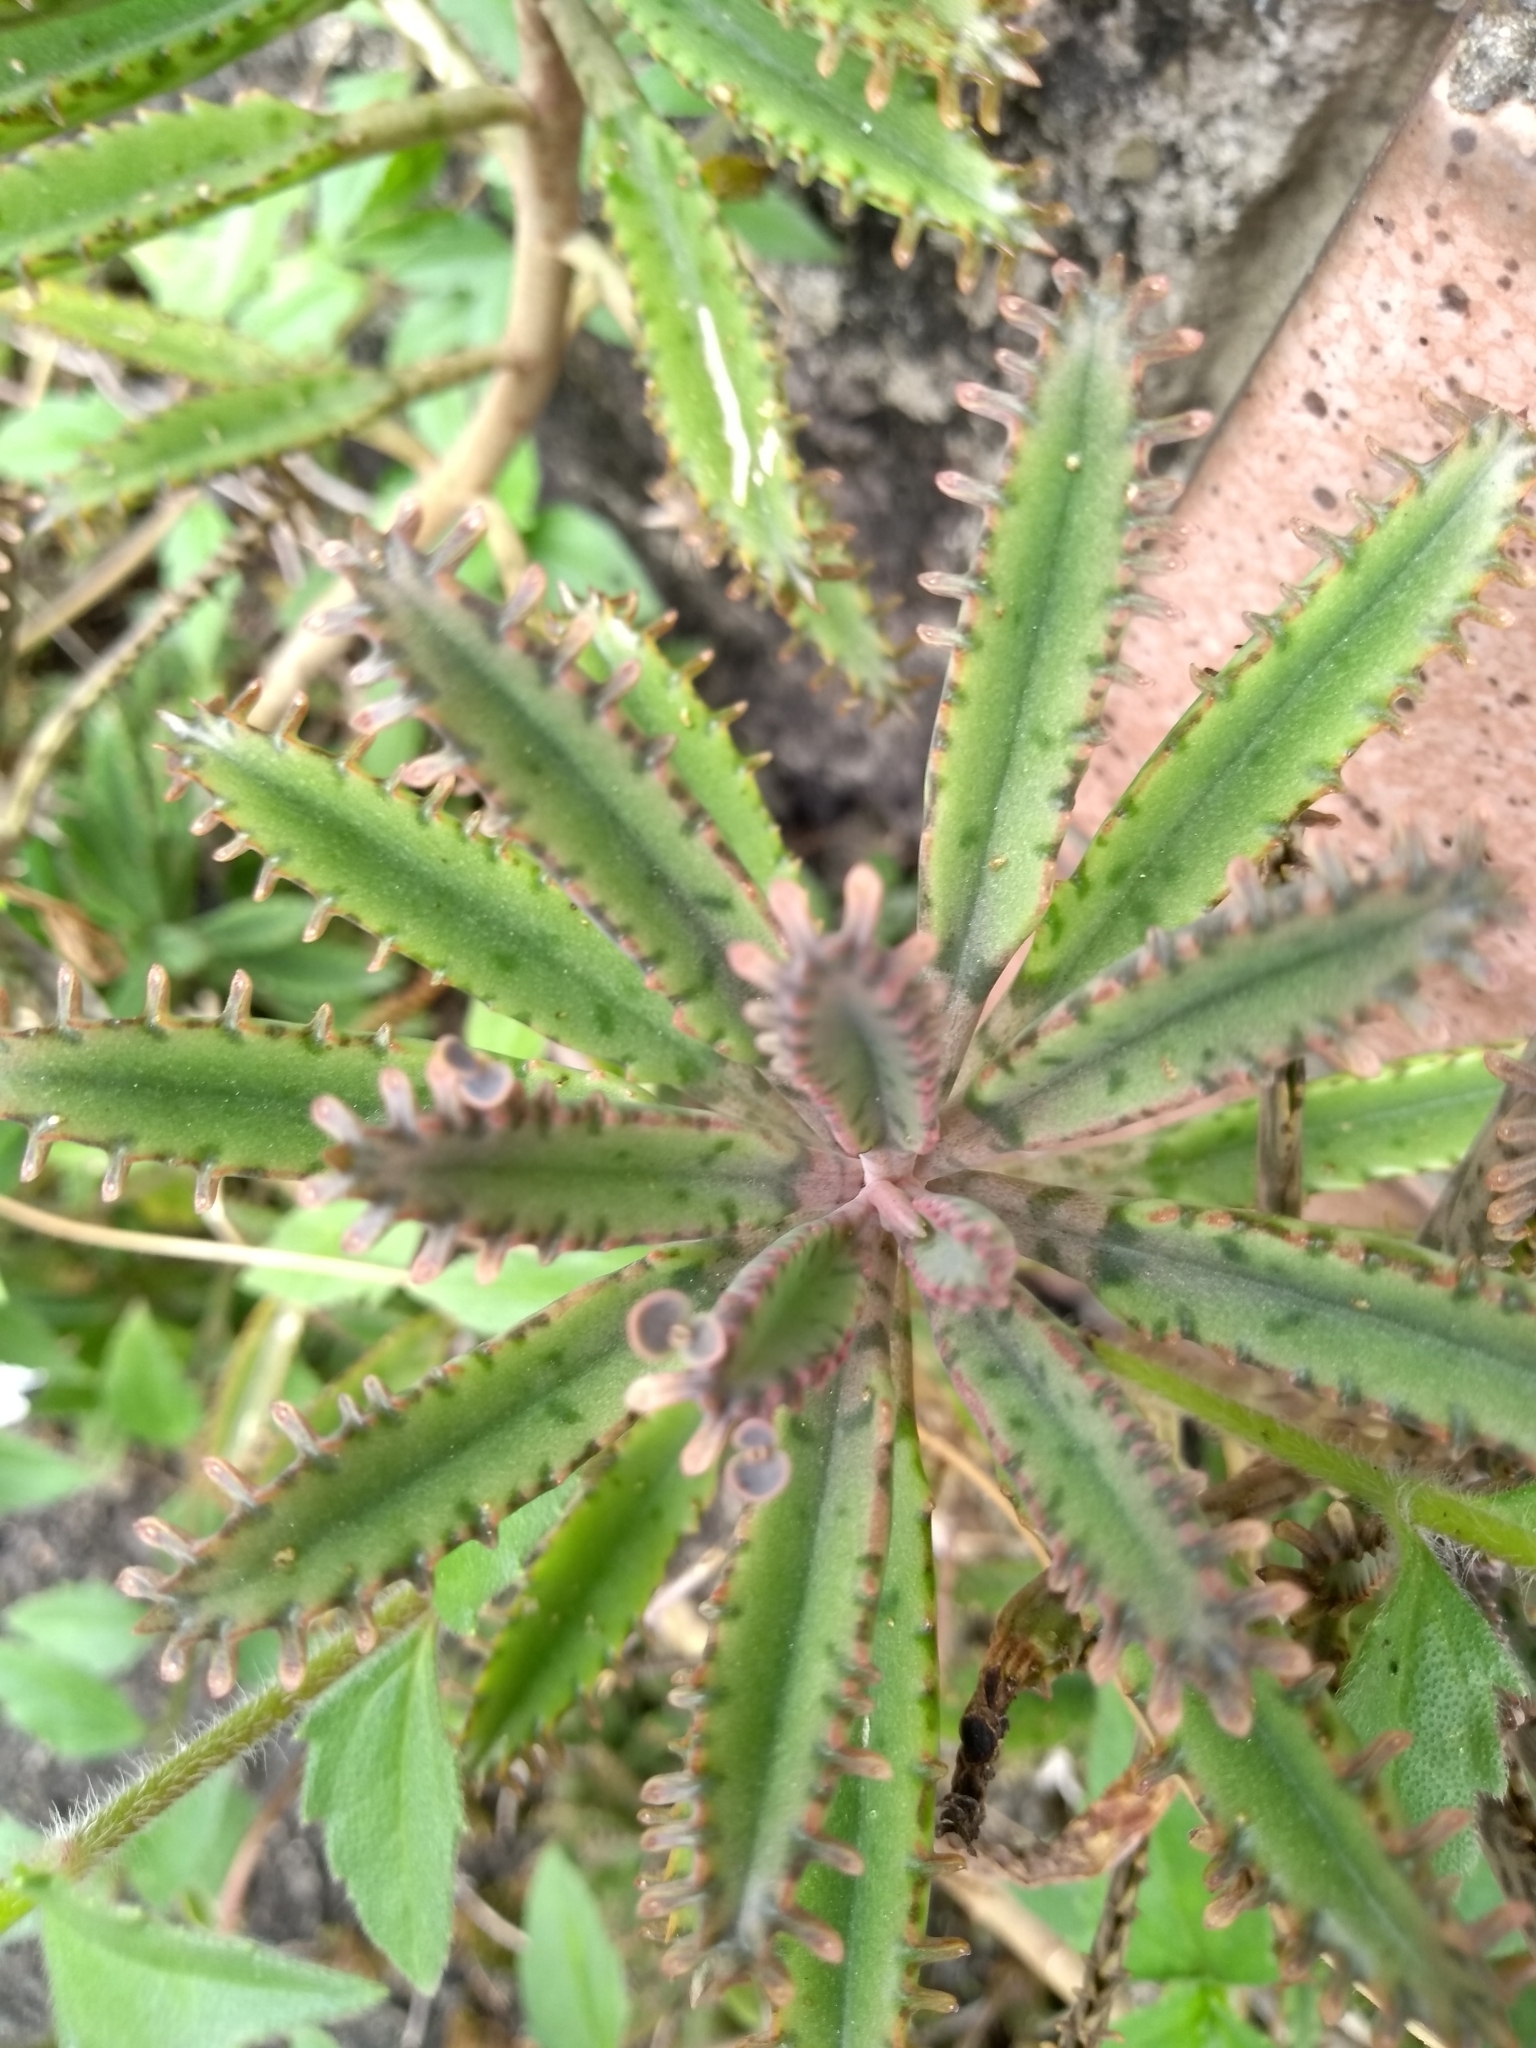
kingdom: Plantae
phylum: Tracheophyta
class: Magnoliopsida
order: Saxifragales
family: Crassulaceae
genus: Kalanchoe
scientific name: Kalanchoe houghtonii
